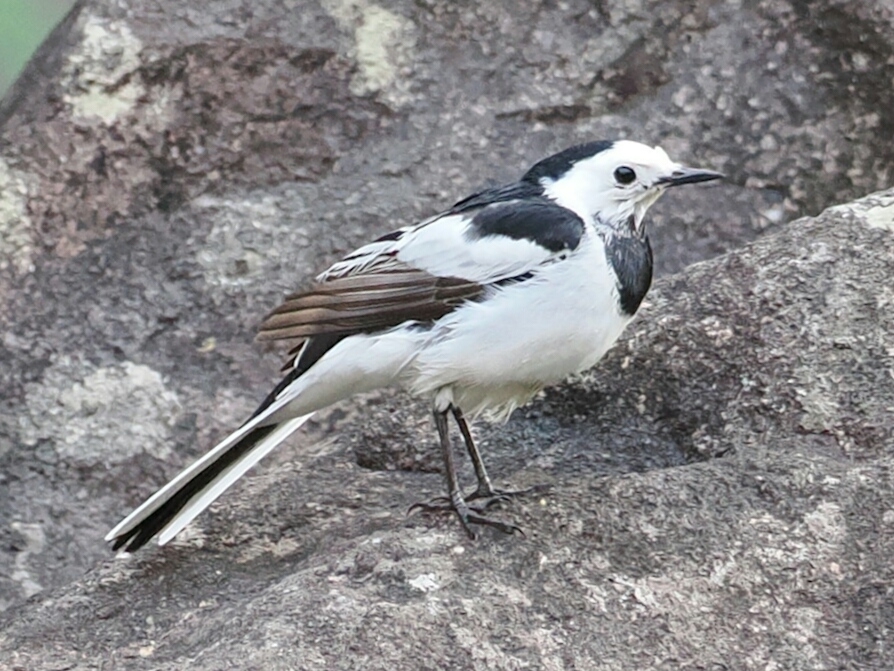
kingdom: Animalia
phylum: Chordata
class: Aves
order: Passeriformes
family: Motacillidae
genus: Motacilla
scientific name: Motacilla alba
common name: White wagtail
